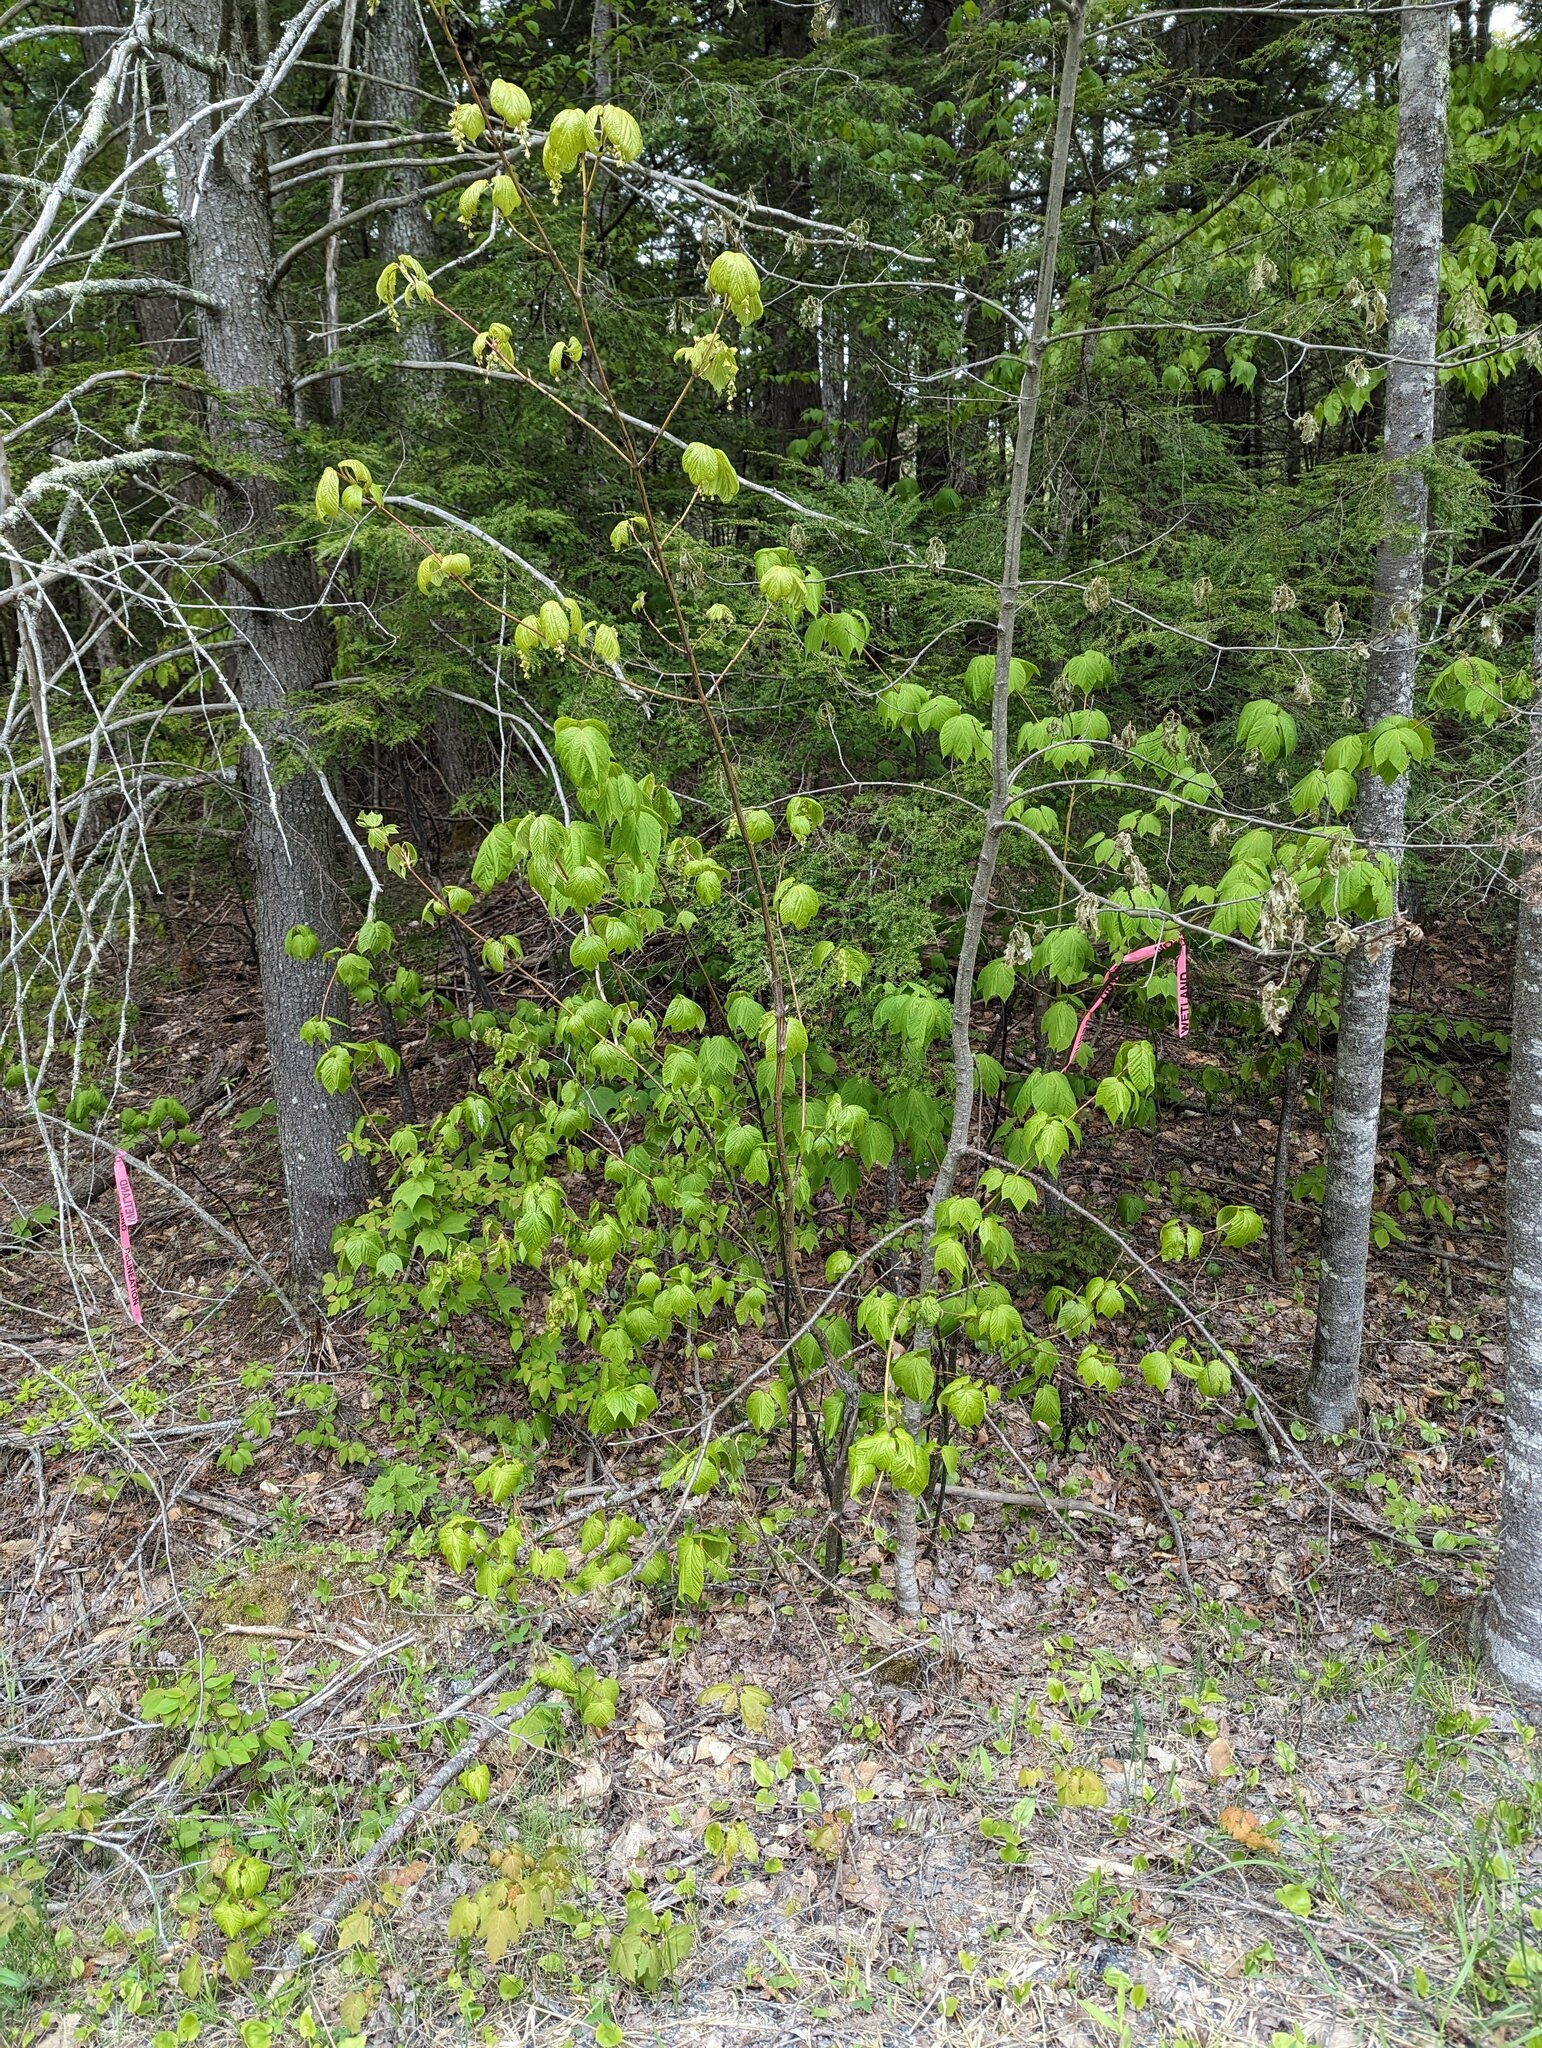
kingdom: Plantae
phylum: Tracheophyta
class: Magnoliopsida
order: Sapindales
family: Sapindaceae
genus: Acer
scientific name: Acer pensylvanicum
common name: Moosewood
